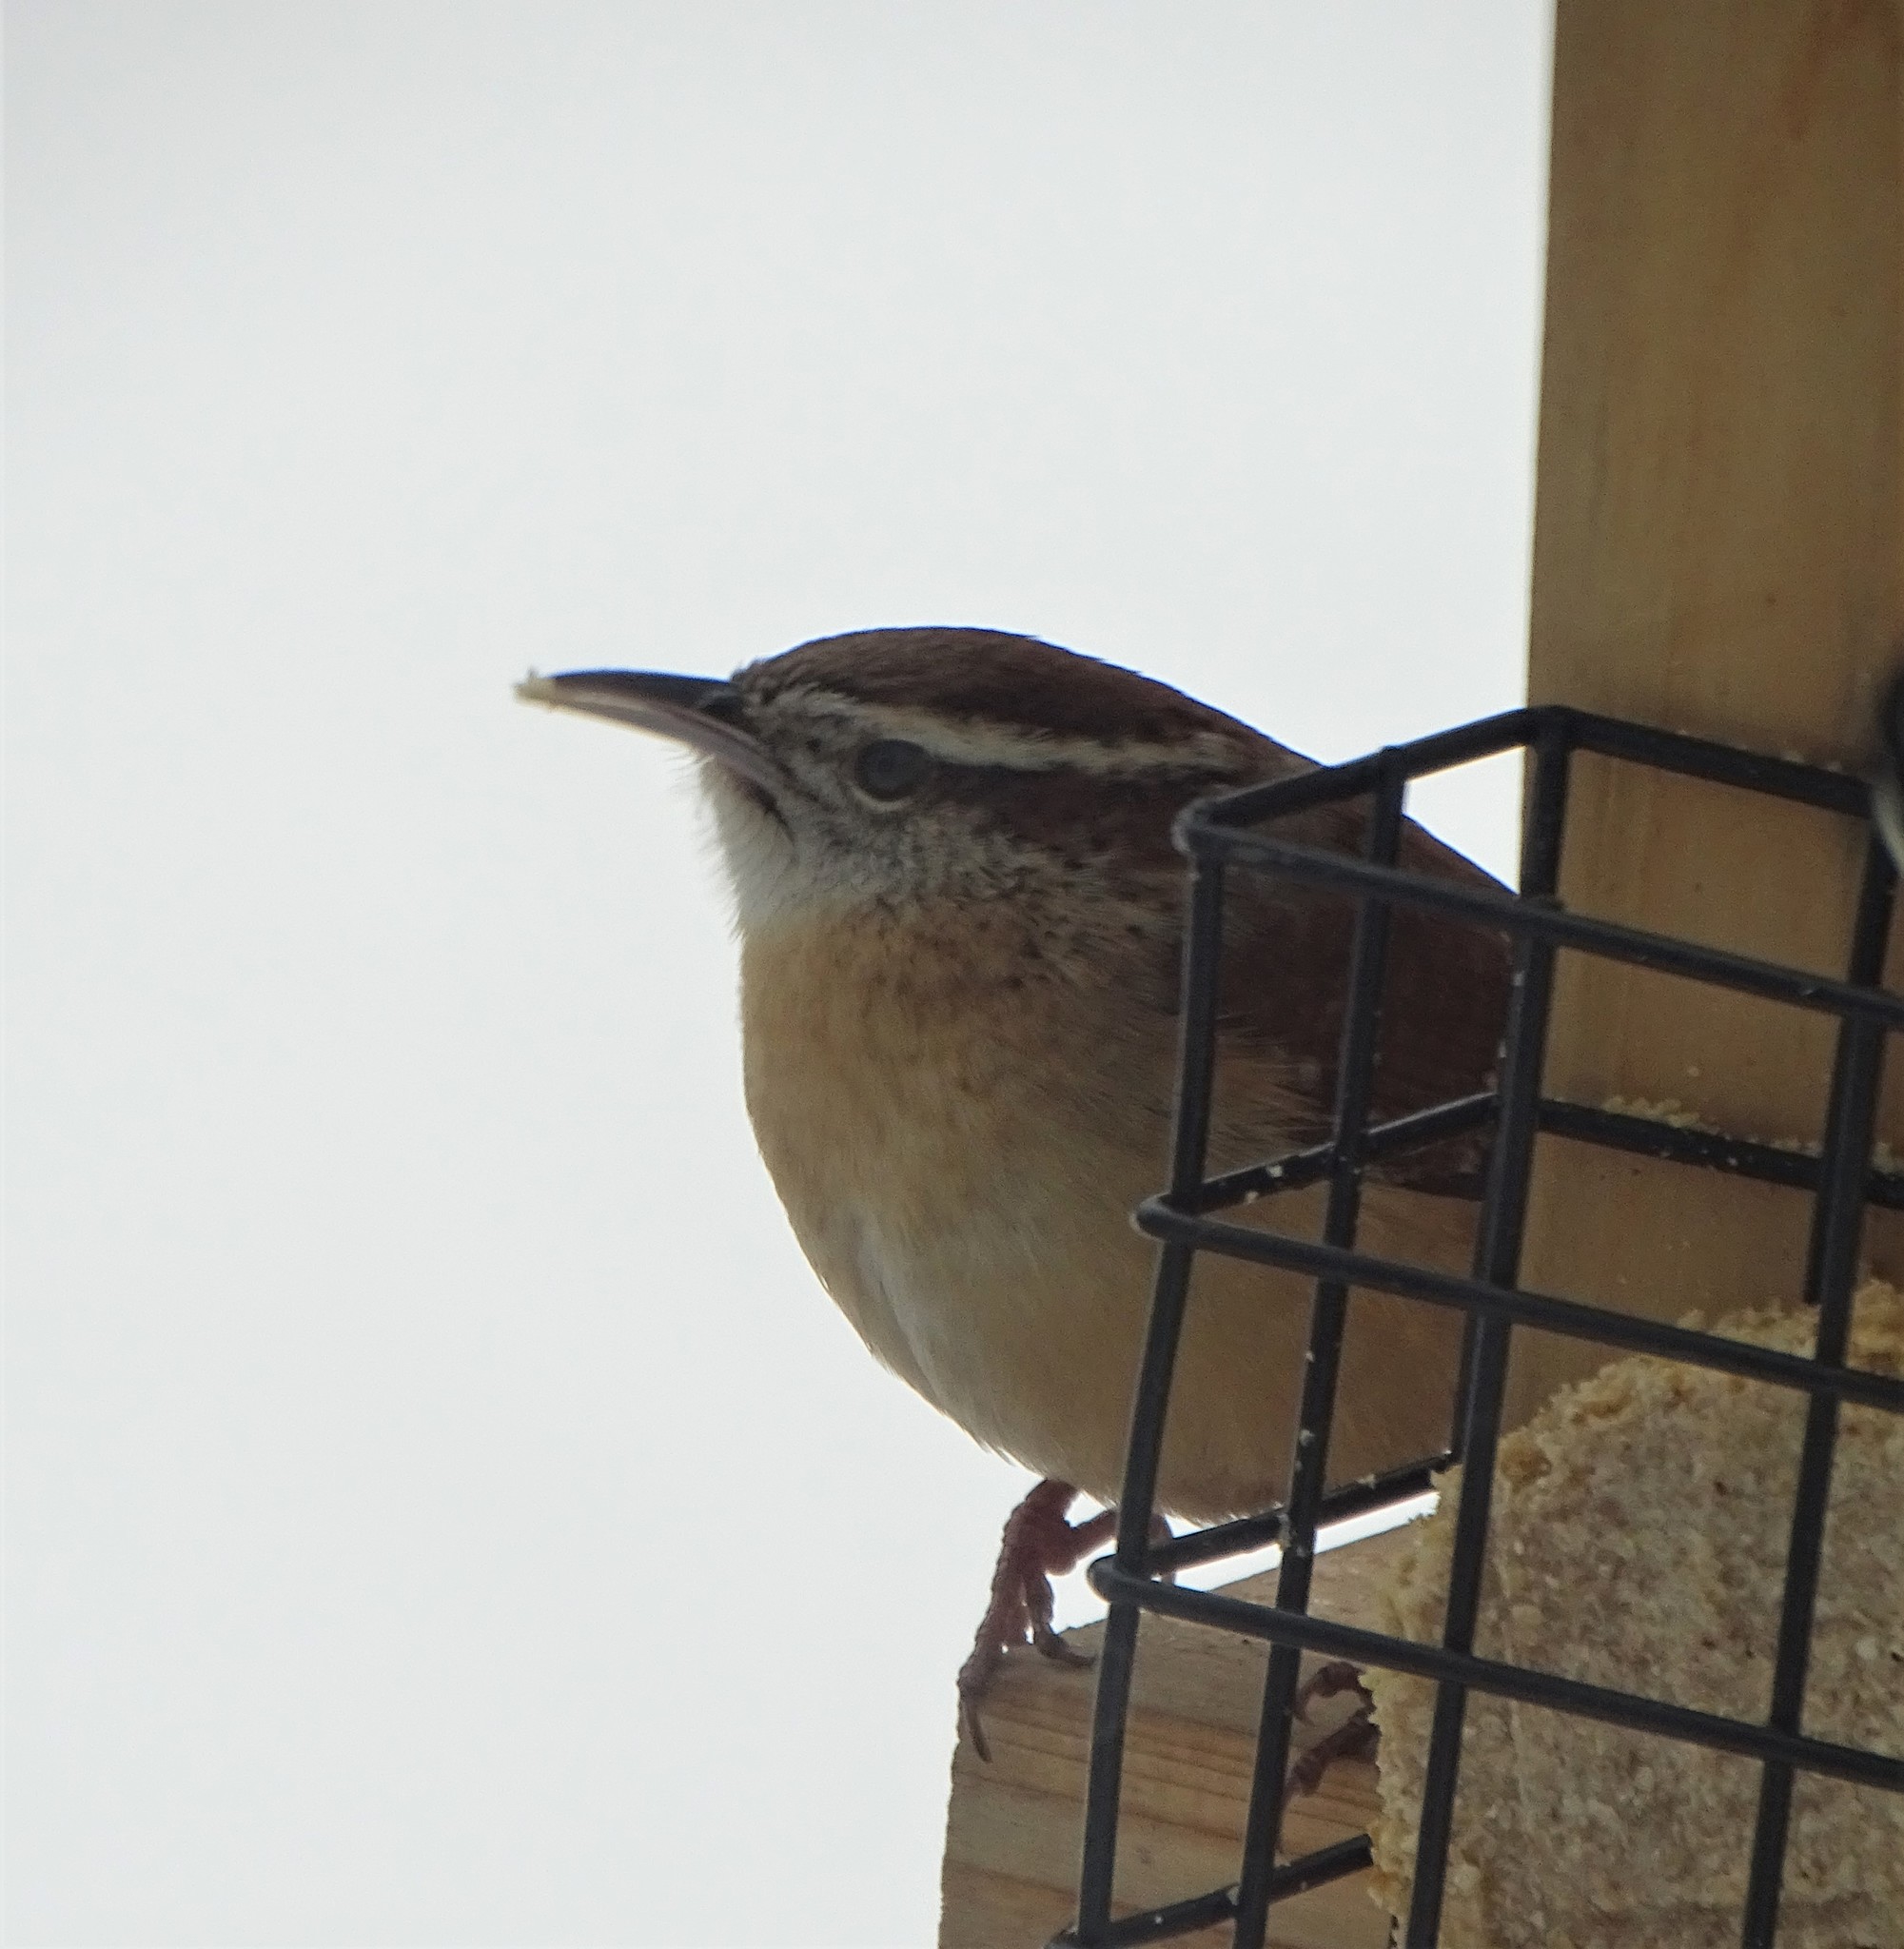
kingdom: Animalia
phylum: Chordata
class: Aves
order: Passeriformes
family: Troglodytidae
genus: Thryothorus
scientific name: Thryothorus ludovicianus
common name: Carolina wren
